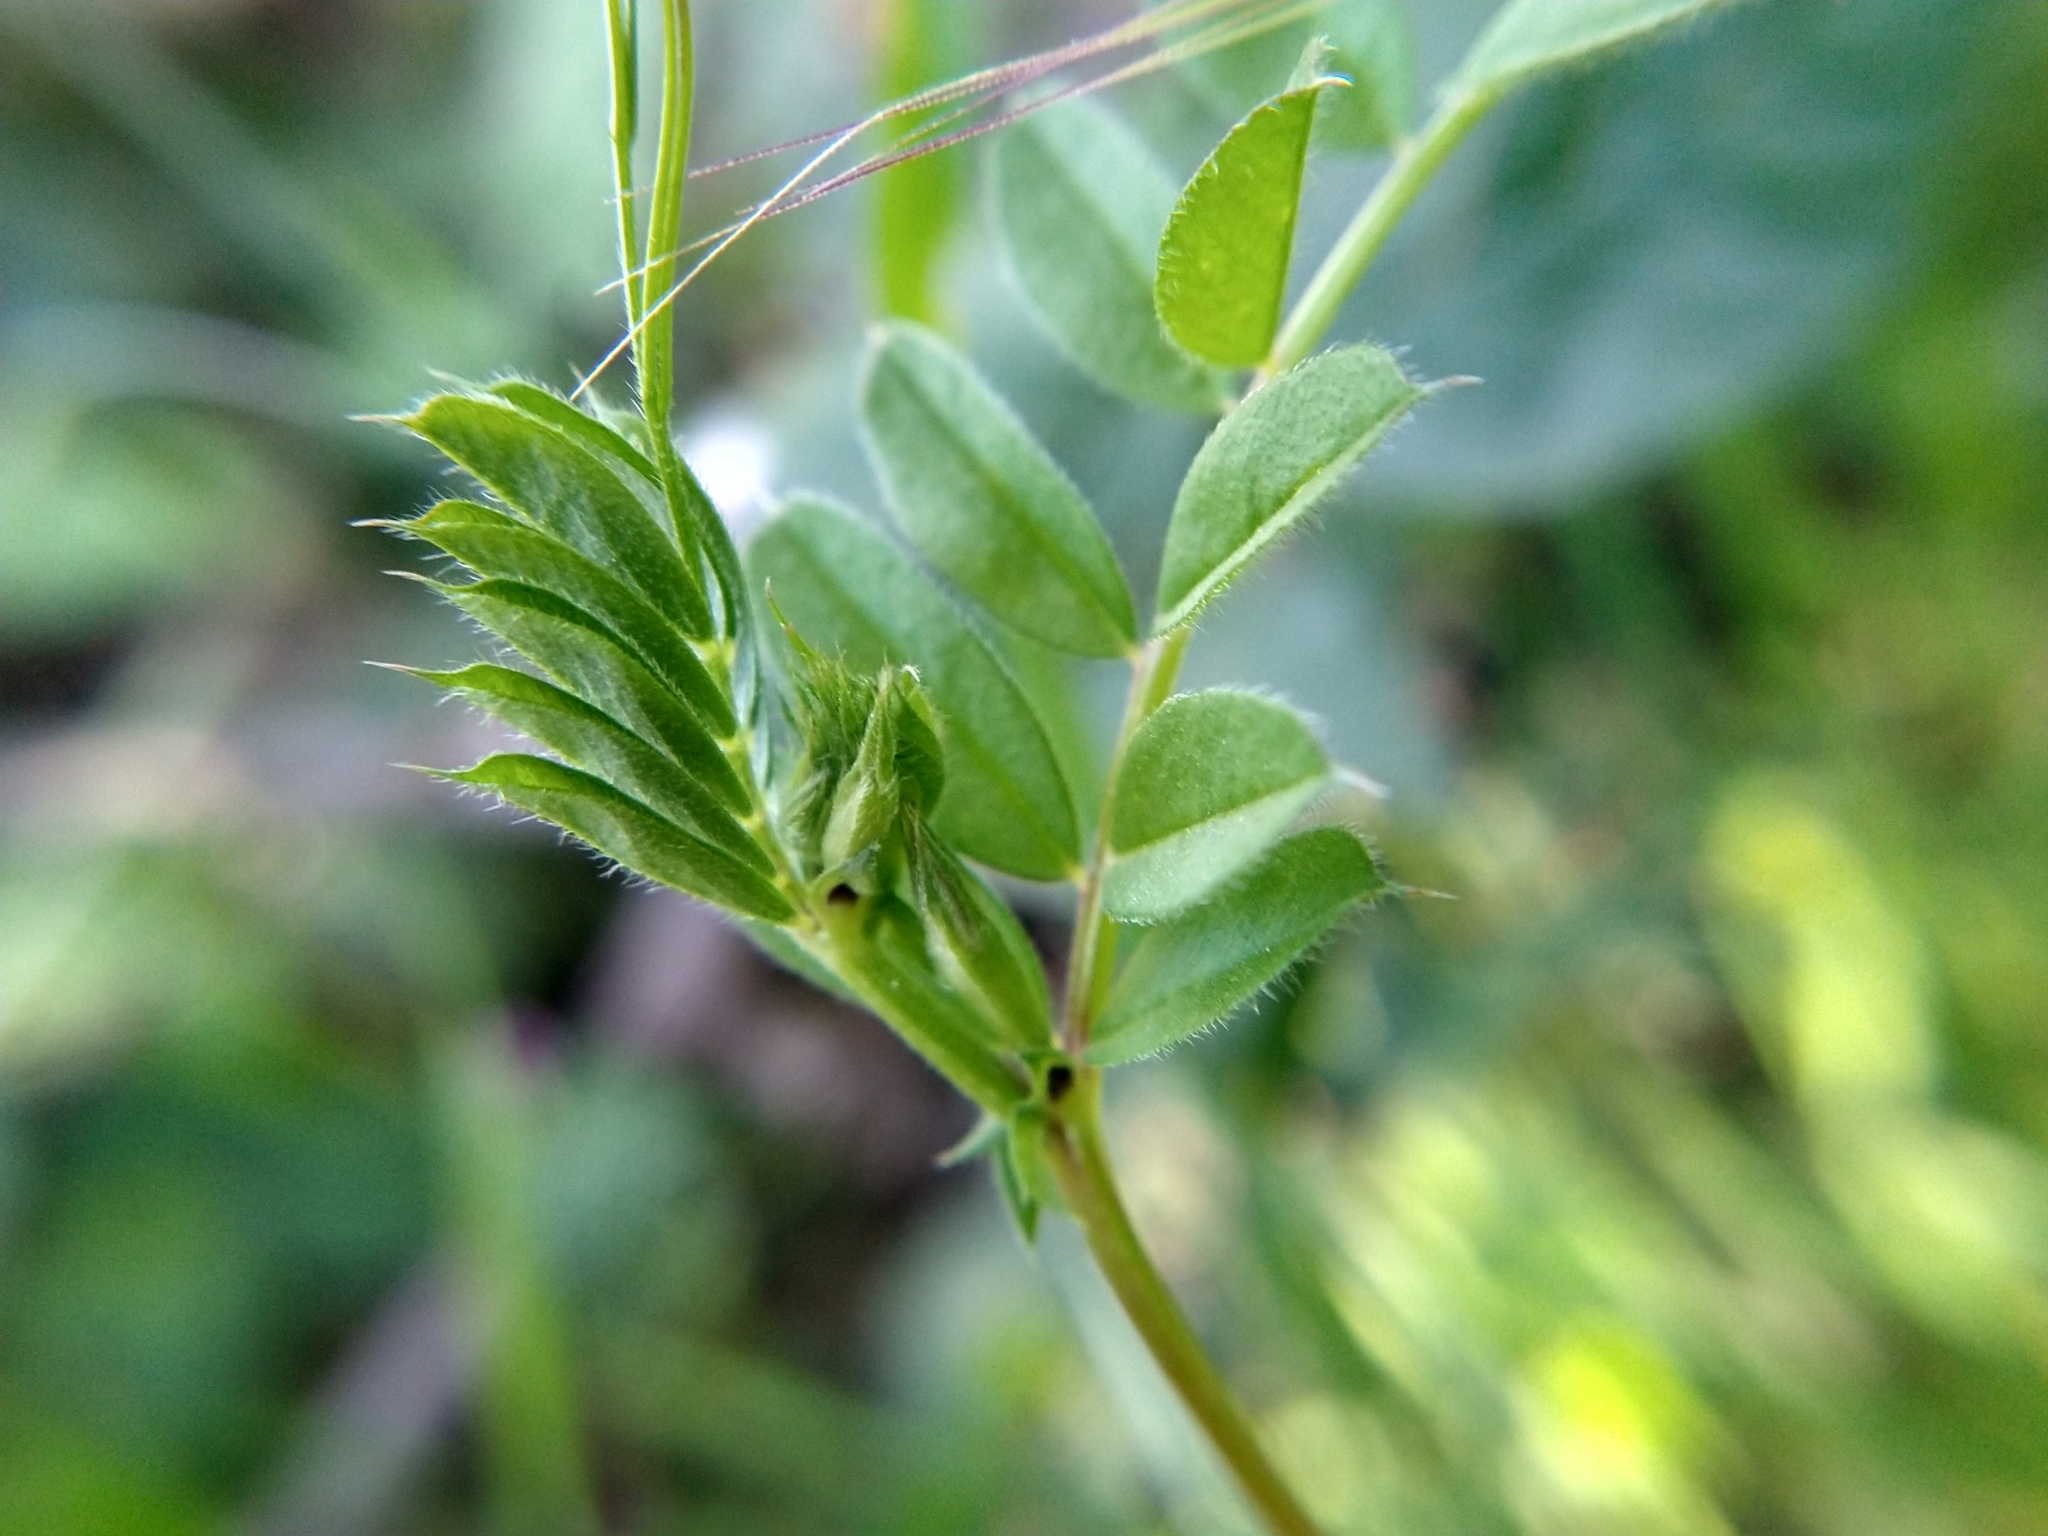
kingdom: Plantae
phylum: Tracheophyta
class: Magnoliopsida
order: Fabales
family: Fabaceae
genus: Vicia
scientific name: Vicia sativa
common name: Garden vetch
